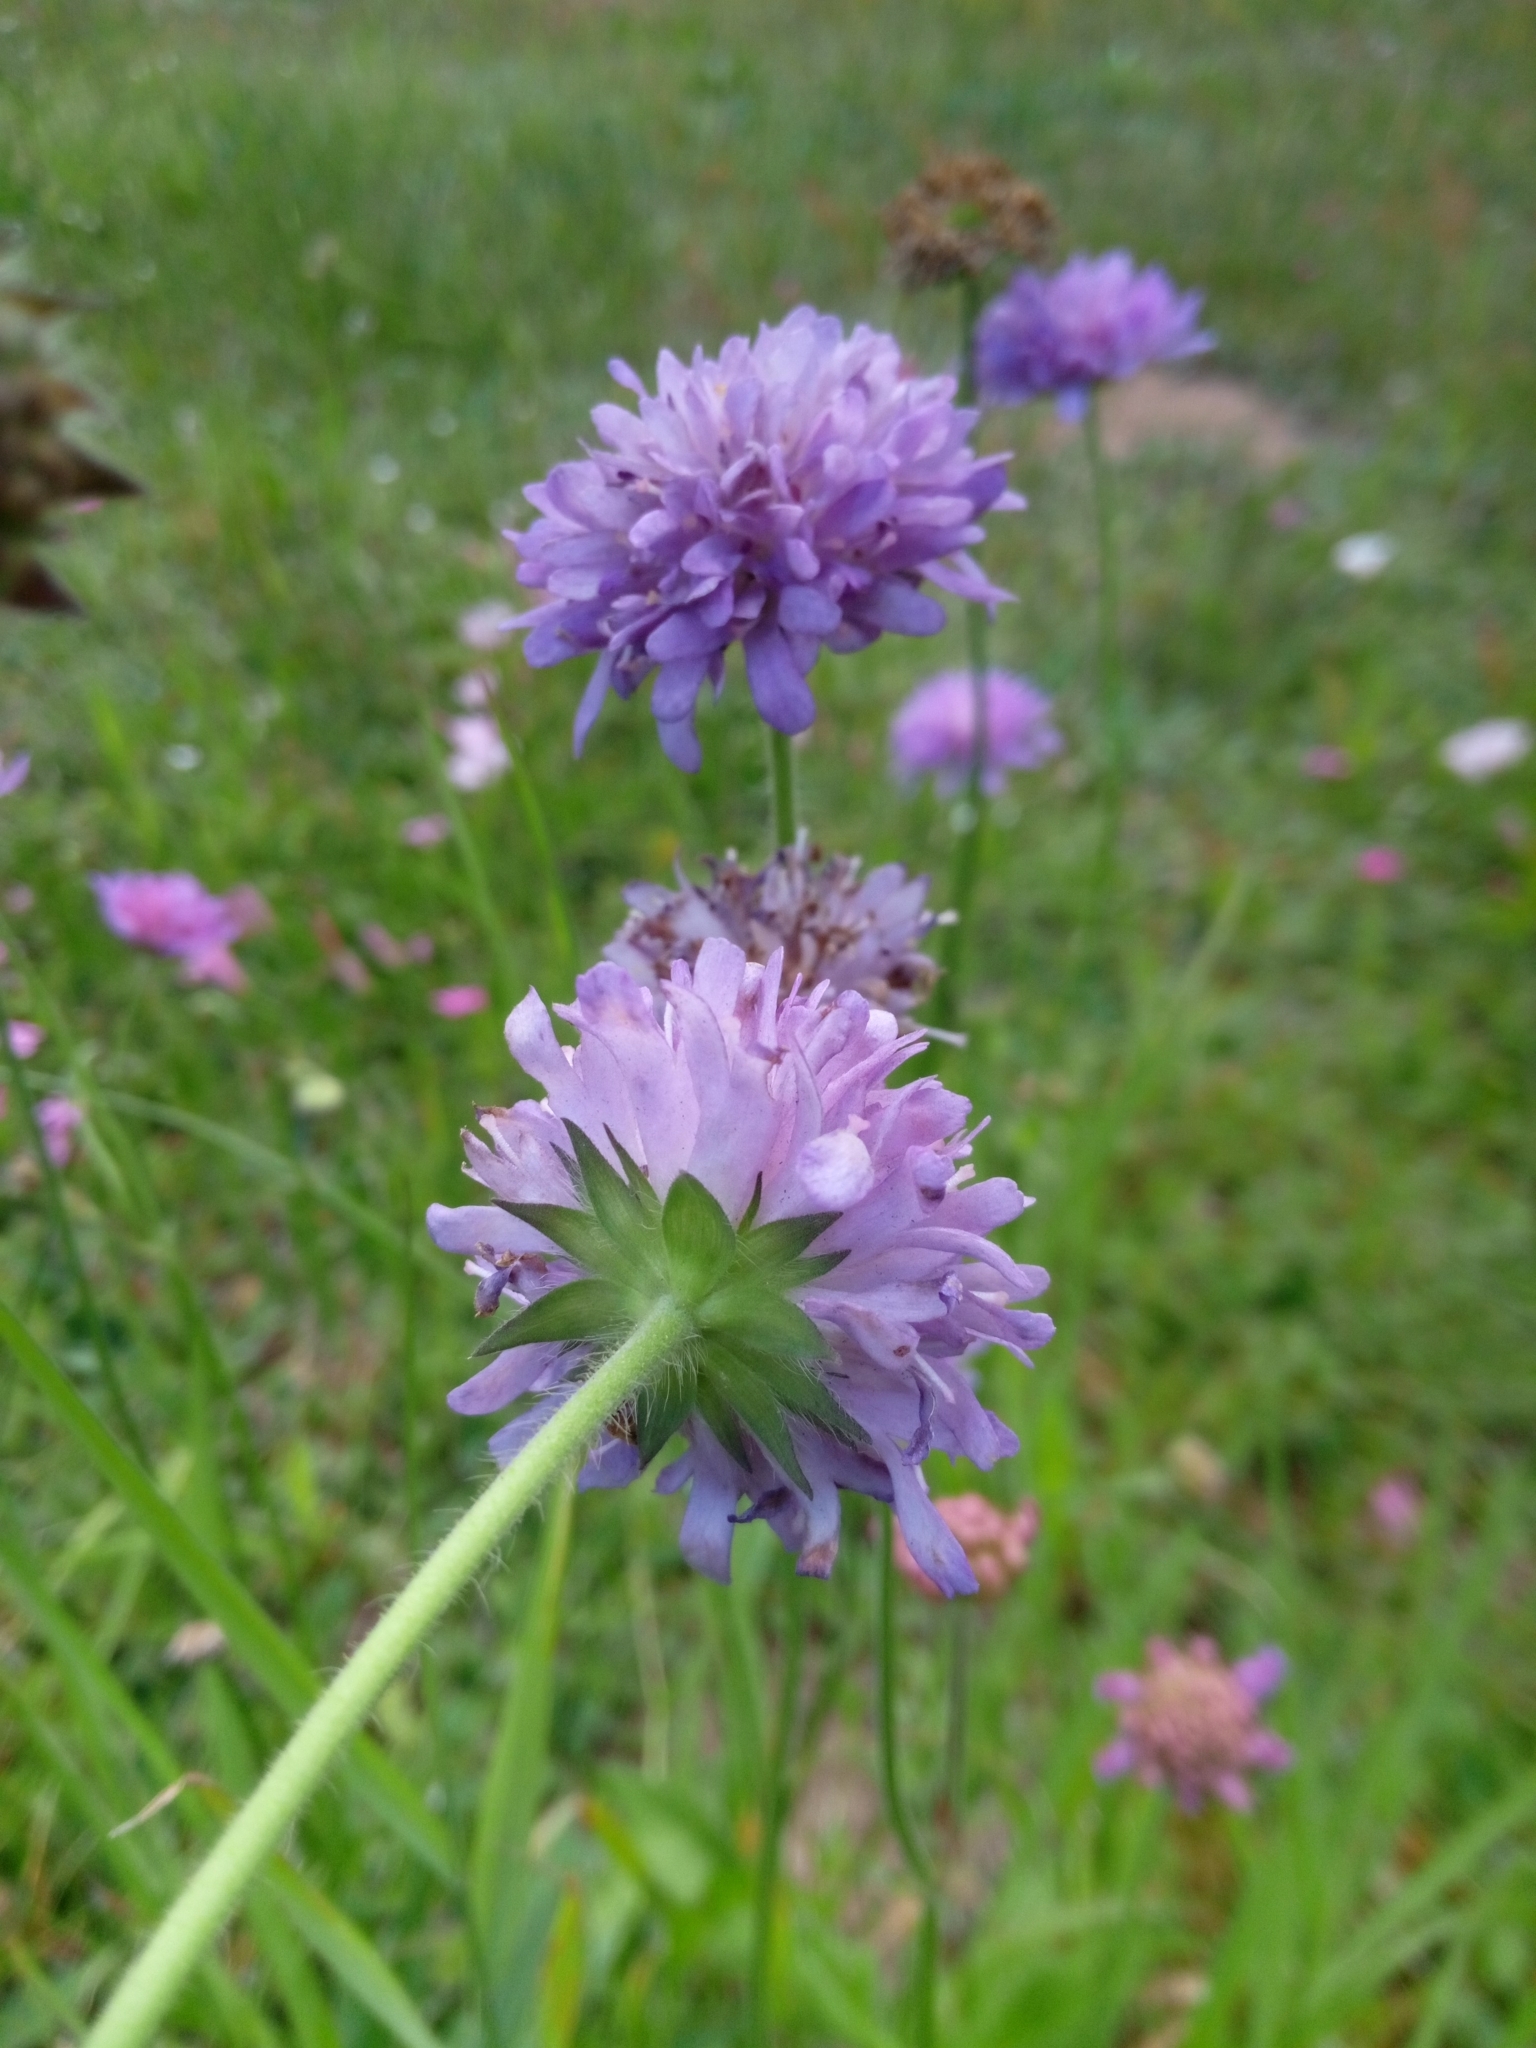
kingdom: Plantae
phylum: Tracheophyta
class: Magnoliopsida
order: Dipsacales
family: Caprifoliaceae
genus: Knautia
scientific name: Knautia arvensis
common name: Field scabiosa
